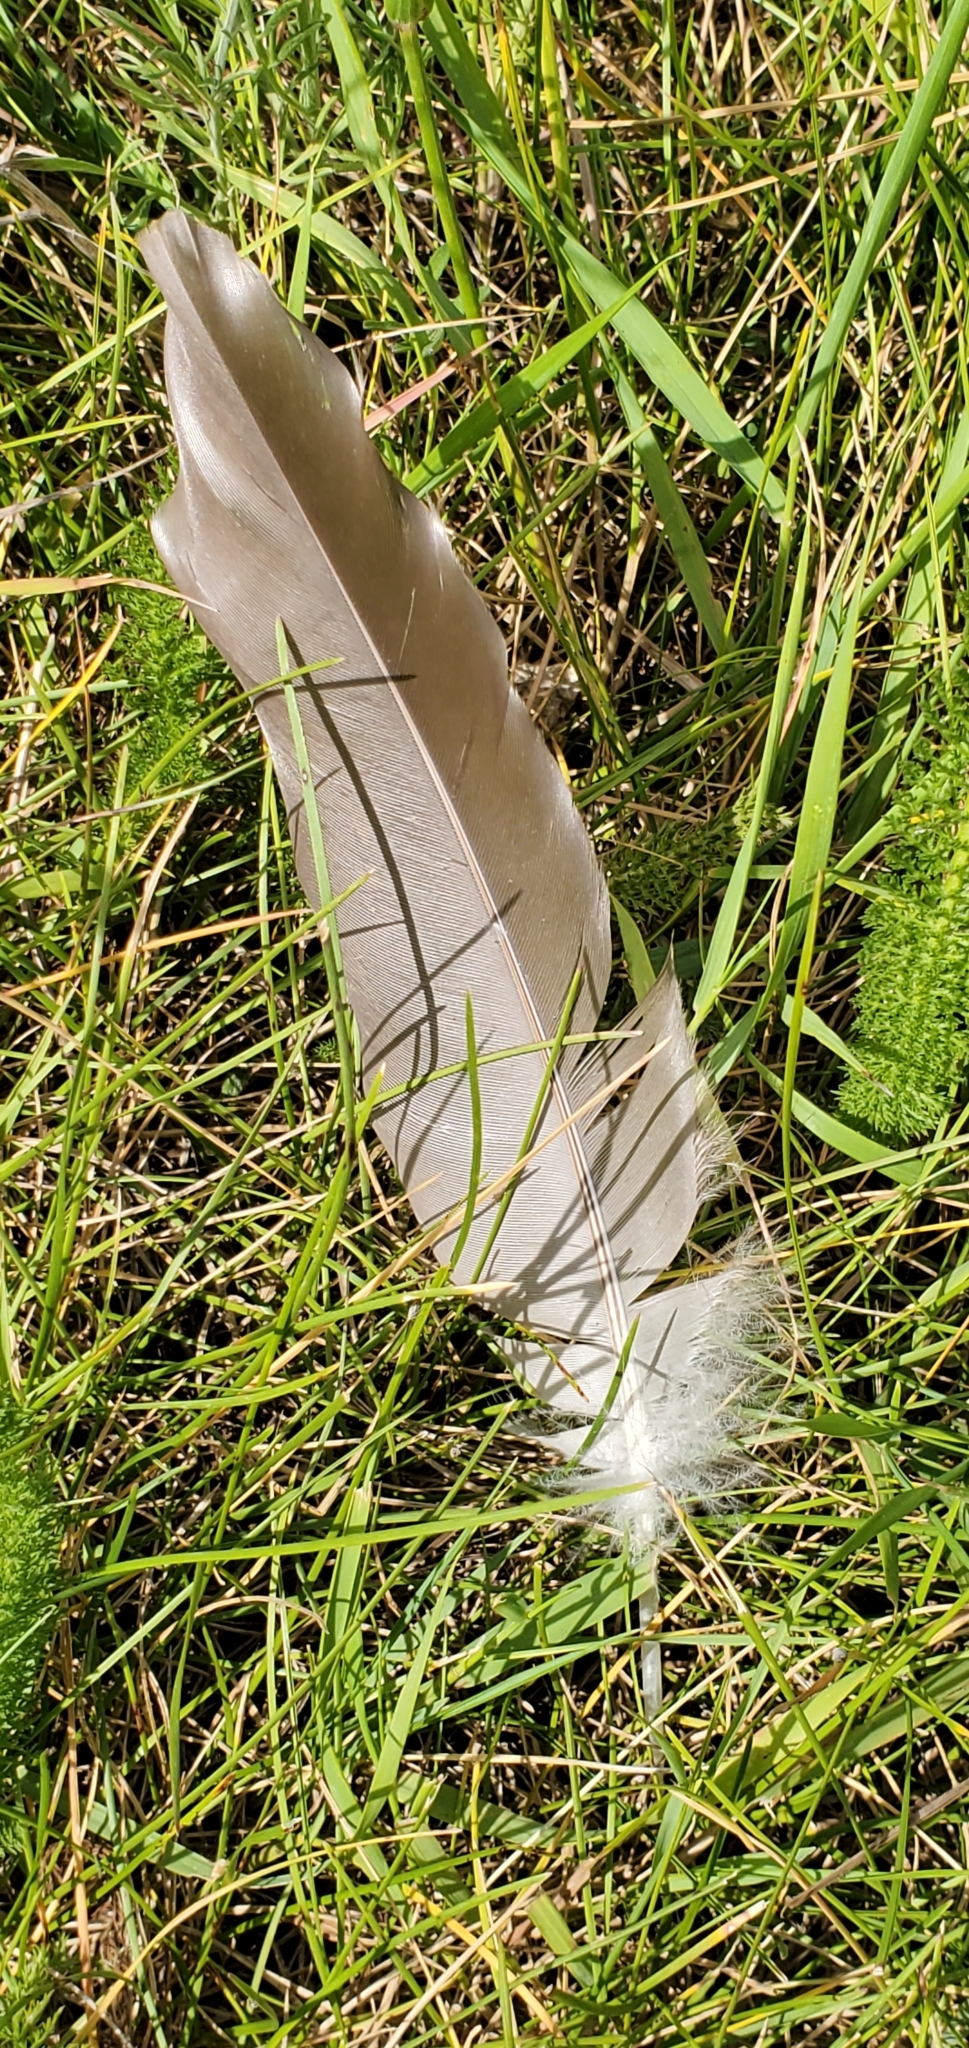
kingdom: Animalia
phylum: Chordata
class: Aves
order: Anseriformes
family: Anatidae
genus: Branta
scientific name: Branta canadensis
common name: Canada goose
